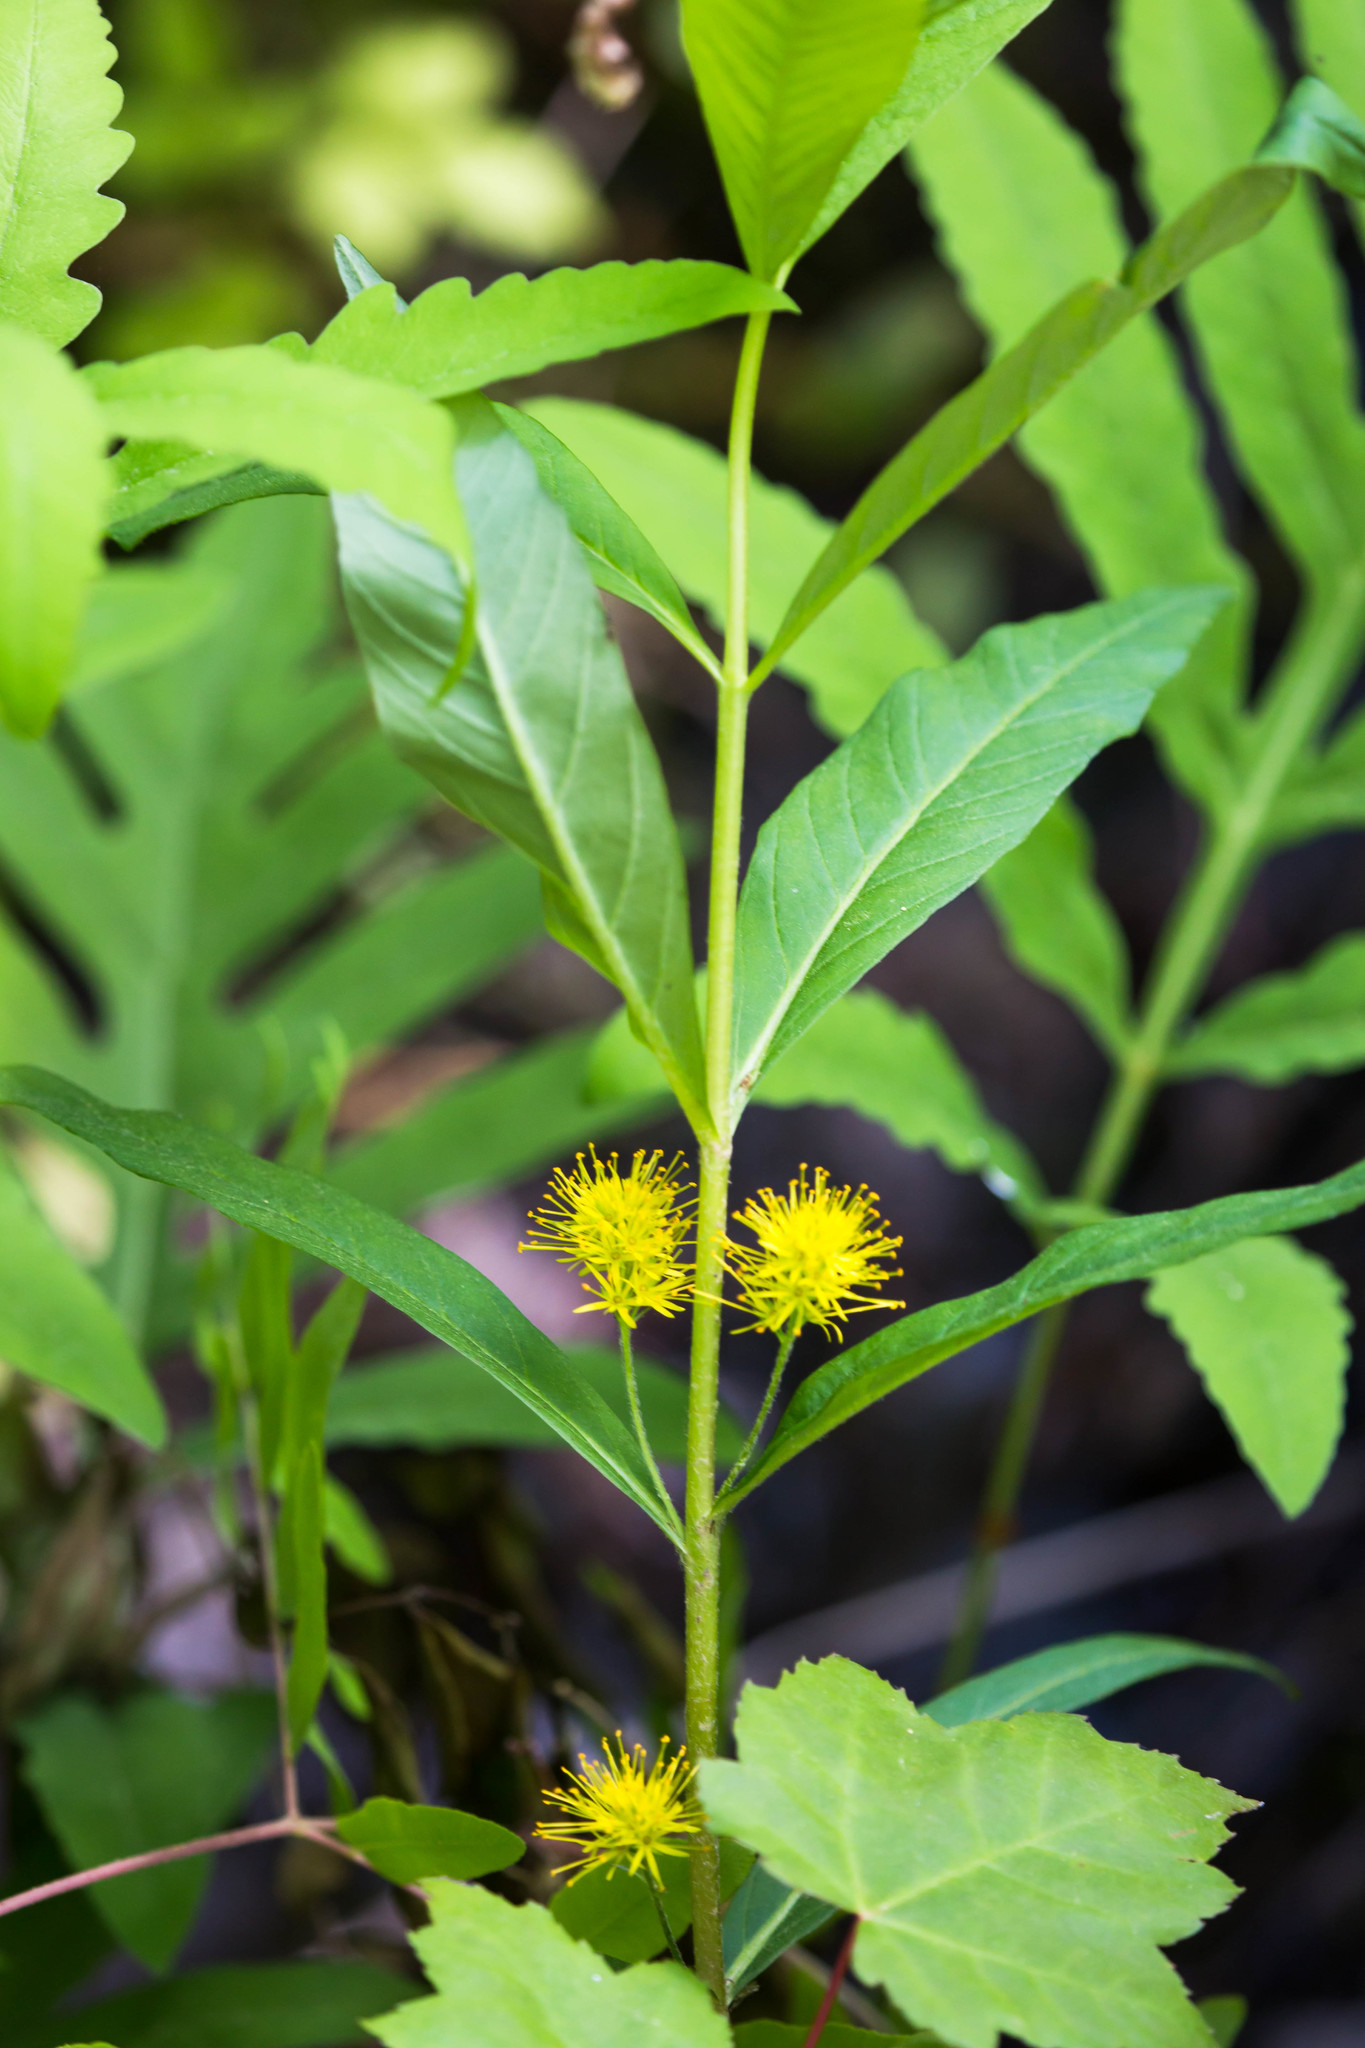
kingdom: Plantae
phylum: Tracheophyta
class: Magnoliopsida
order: Ericales
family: Primulaceae
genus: Lysimachia
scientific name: Lysimachia thyrsiflora
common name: Tufted loosestrife
